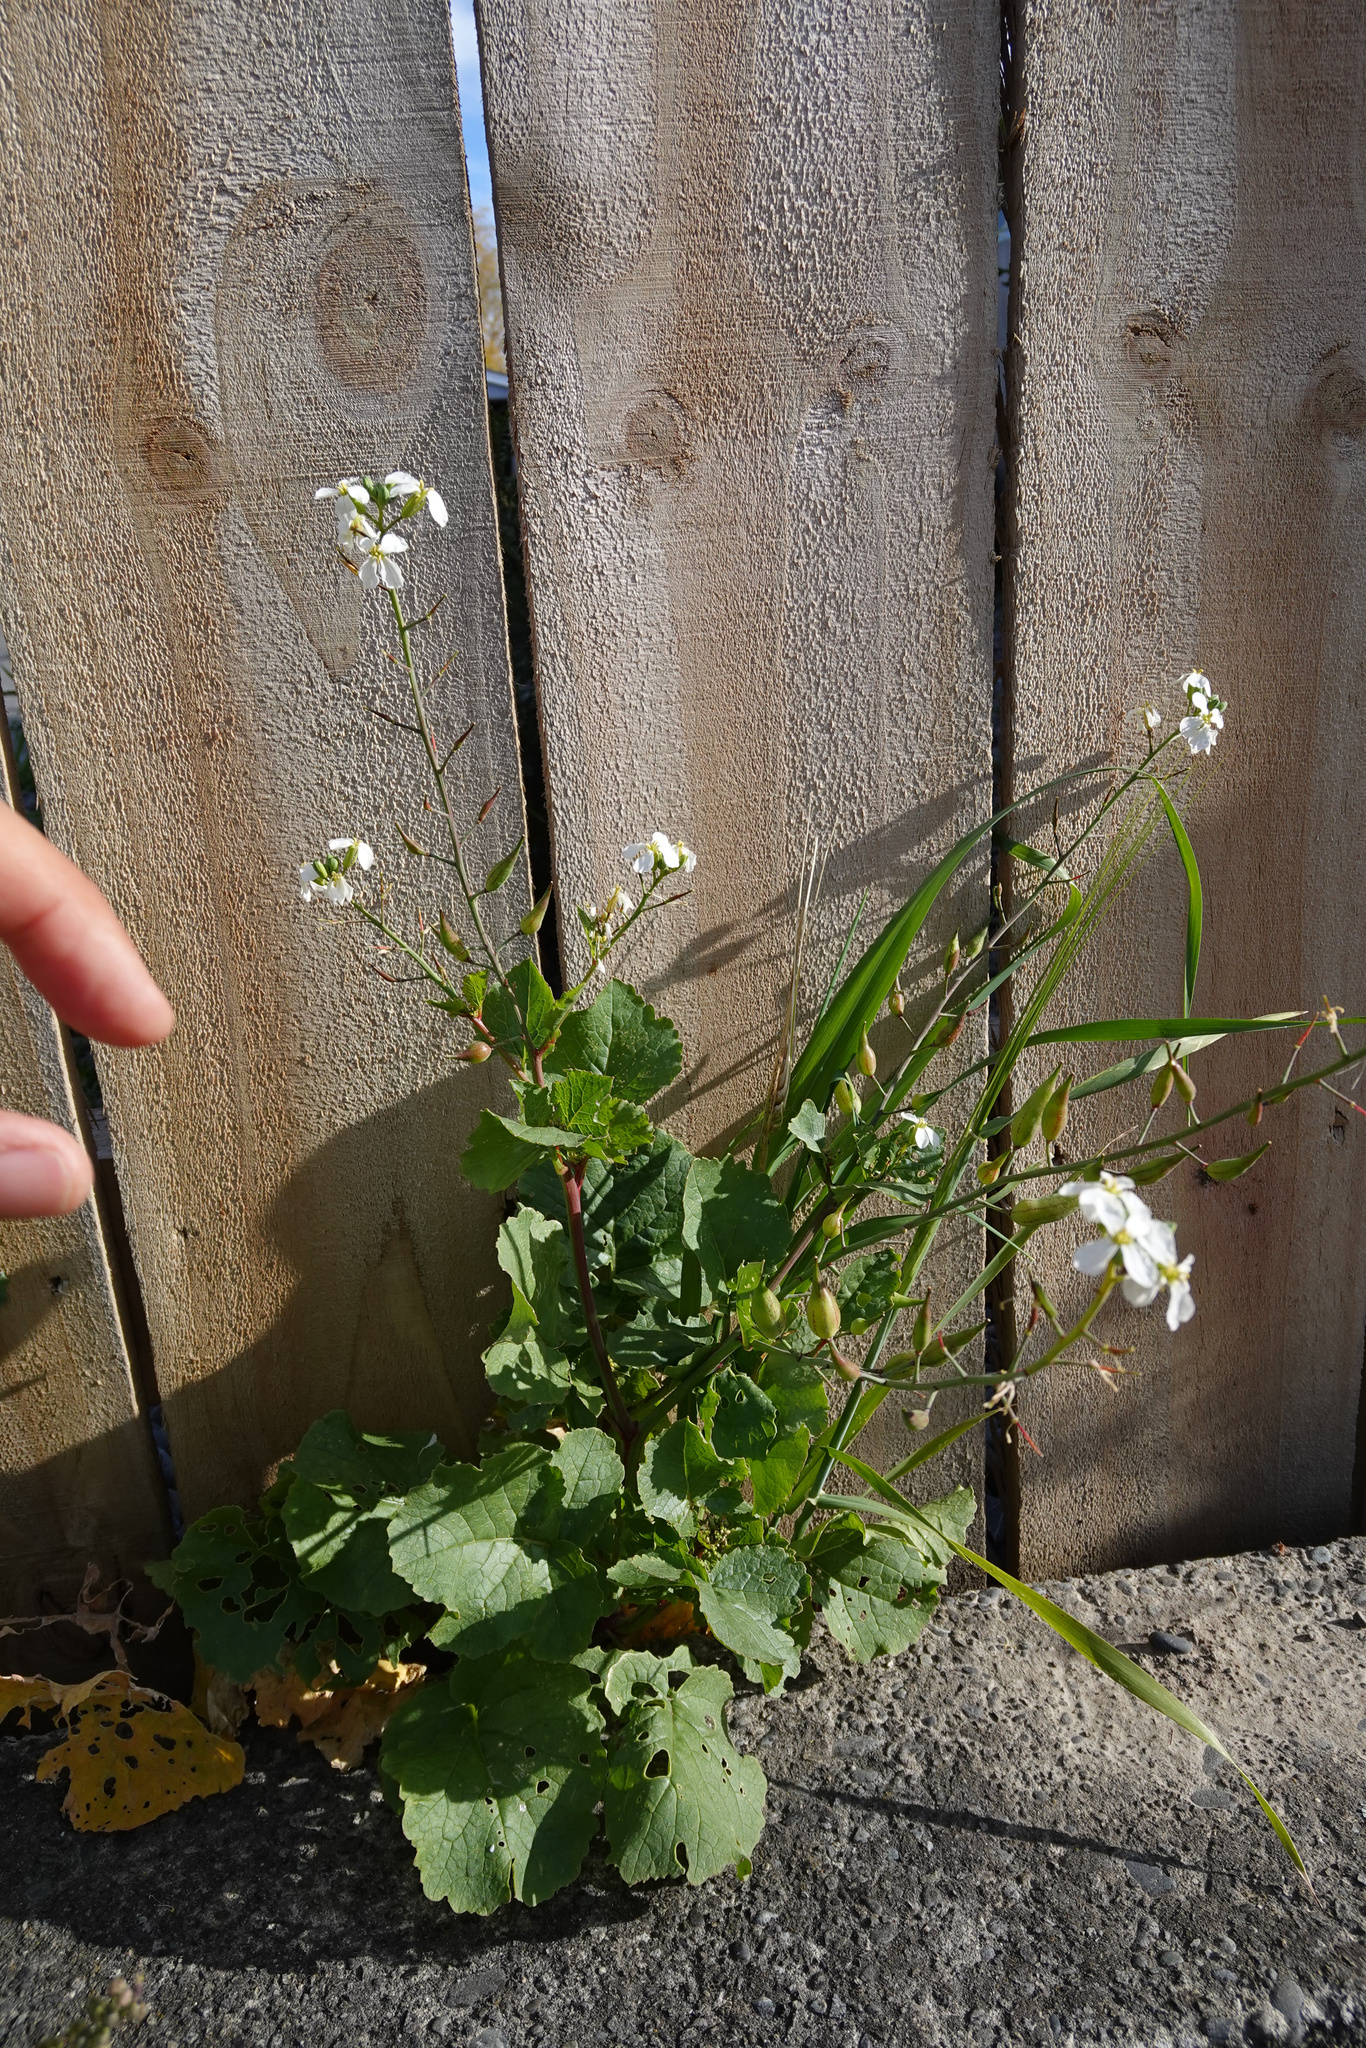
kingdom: Plantae
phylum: Tracheophyta
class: Magnoliopsida
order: Brassicales
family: Brassicaceae
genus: Raphanus
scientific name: Raphanus raphanistrum
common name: Wild radish
